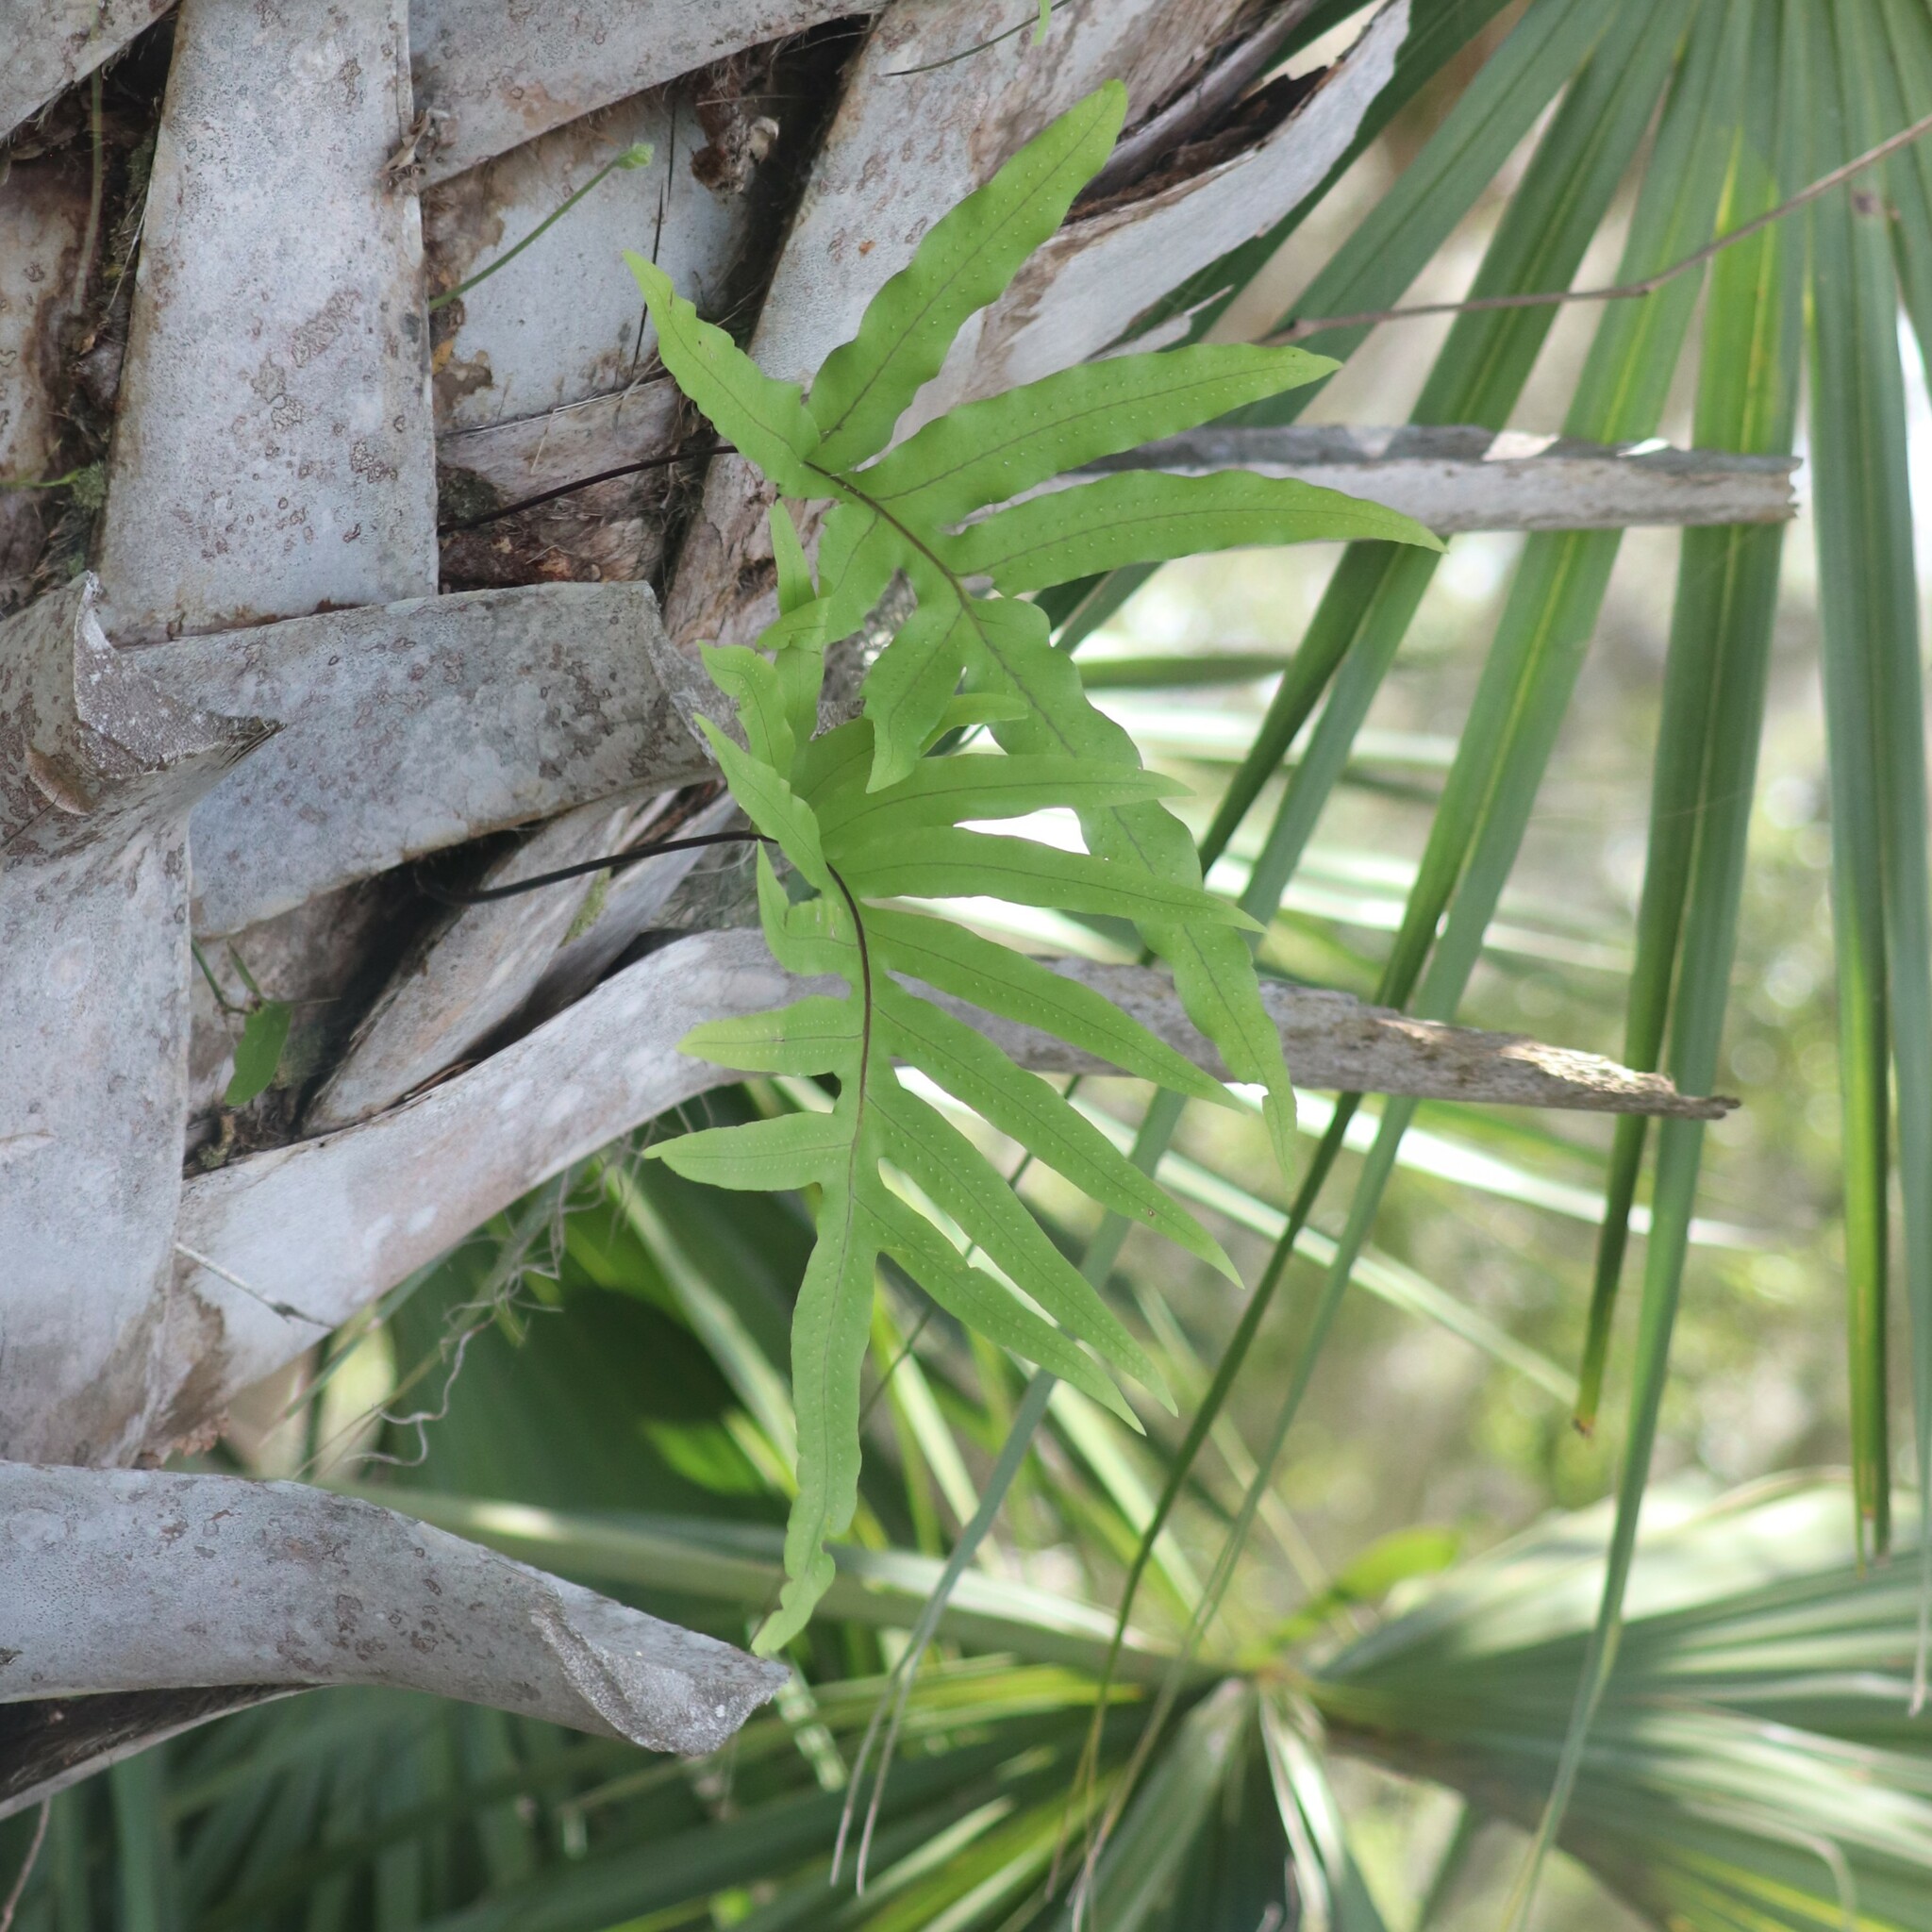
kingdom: Plantae
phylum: Tracheophyta
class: Polypodiopsida
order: Polypodiales
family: Polypodiaceae
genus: Phlebodium
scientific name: Phlebodium aureum
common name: Gold-foot fern
